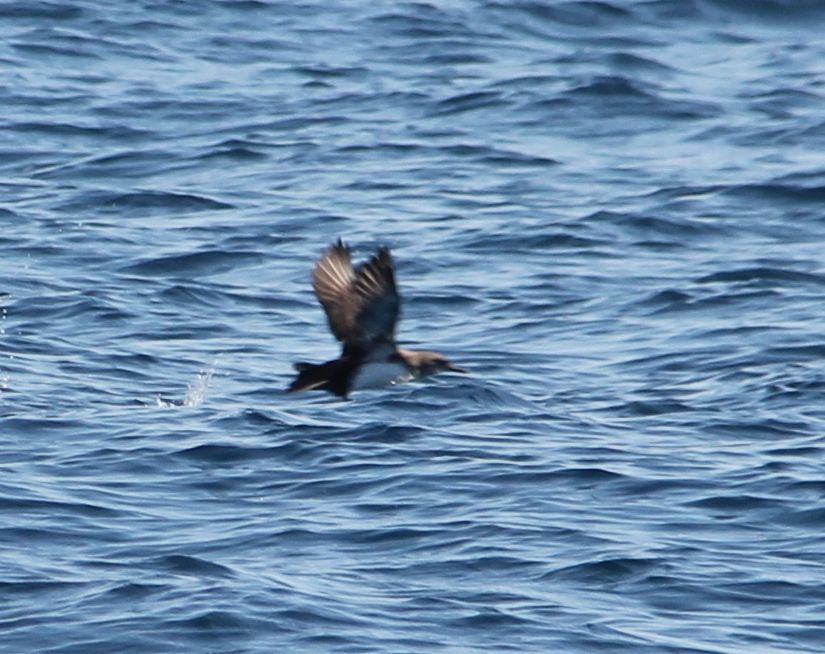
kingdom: Animalia
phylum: Chordata
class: Aves
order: Procellariiformes
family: Procellariidae
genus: Puffinus
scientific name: Puffinus opisthomelas
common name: Black-vented shearwater
